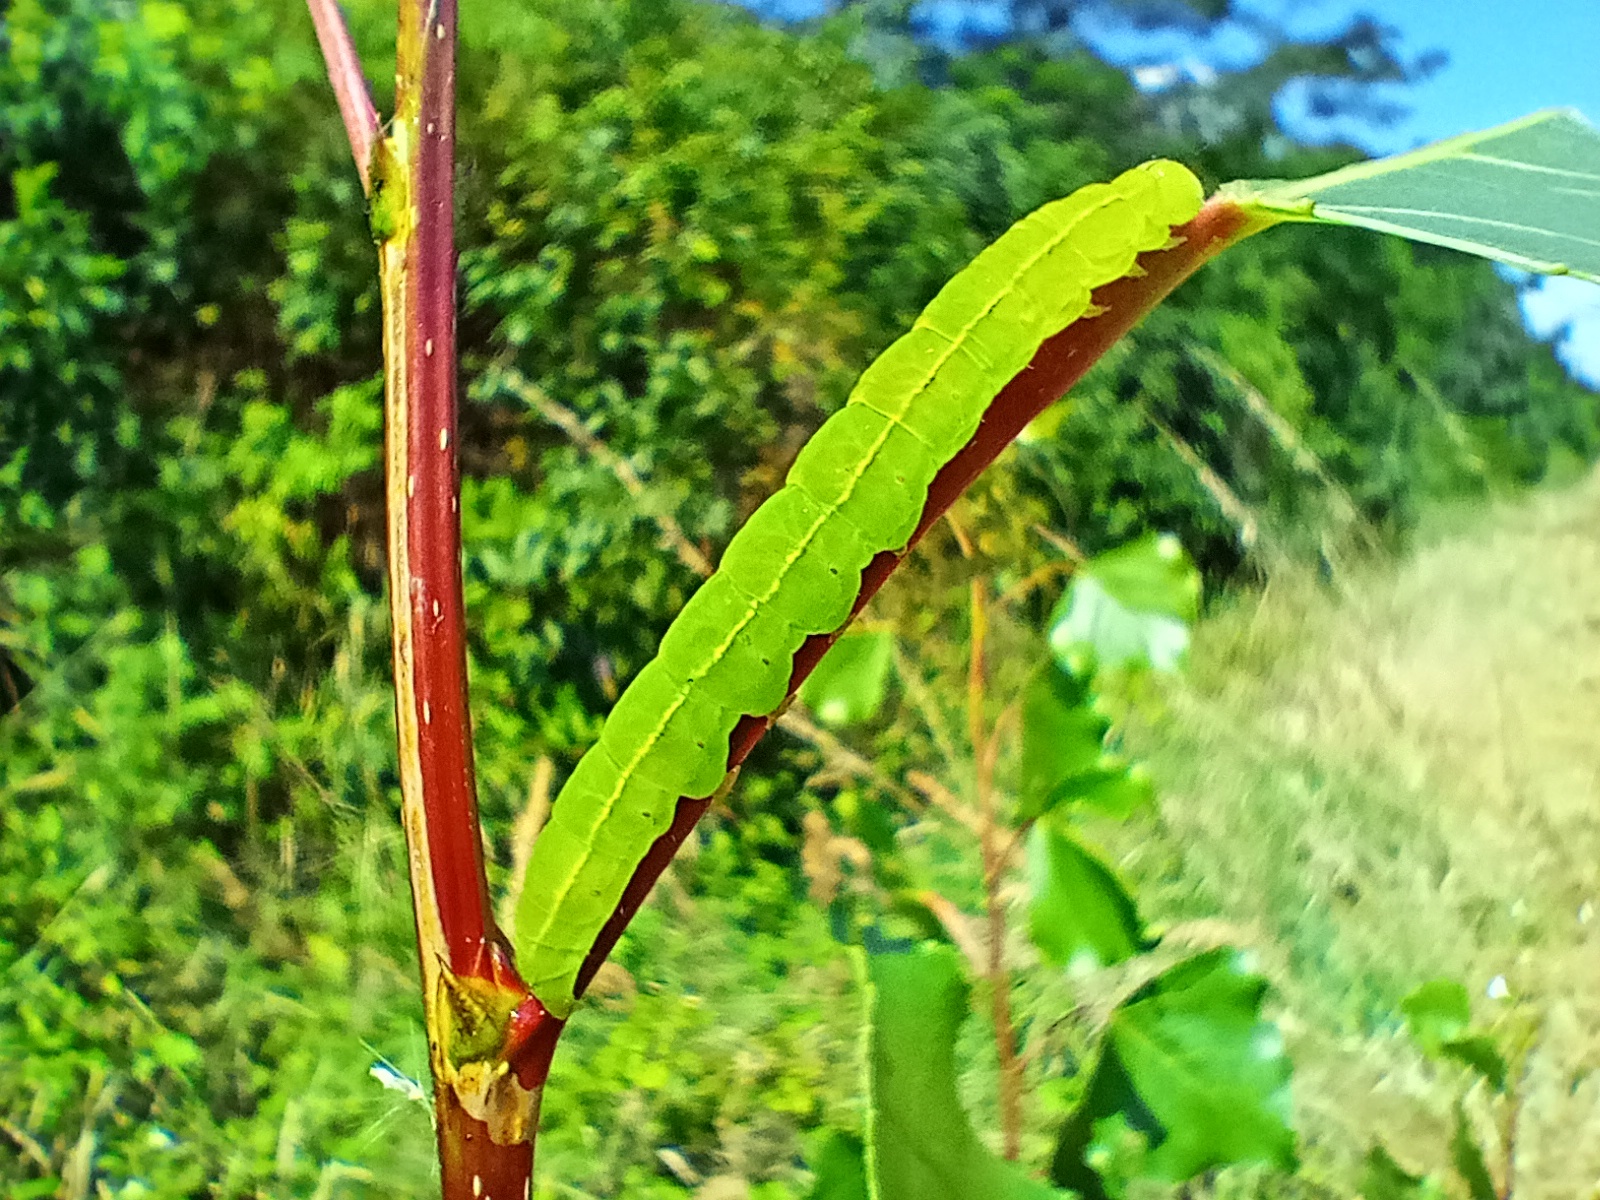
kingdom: Animalia
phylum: Arthropoda
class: Insecta
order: Lepidoptera
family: Erebidae
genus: Scoliopteryx
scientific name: Scoliopteryx libatrix
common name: Herald
